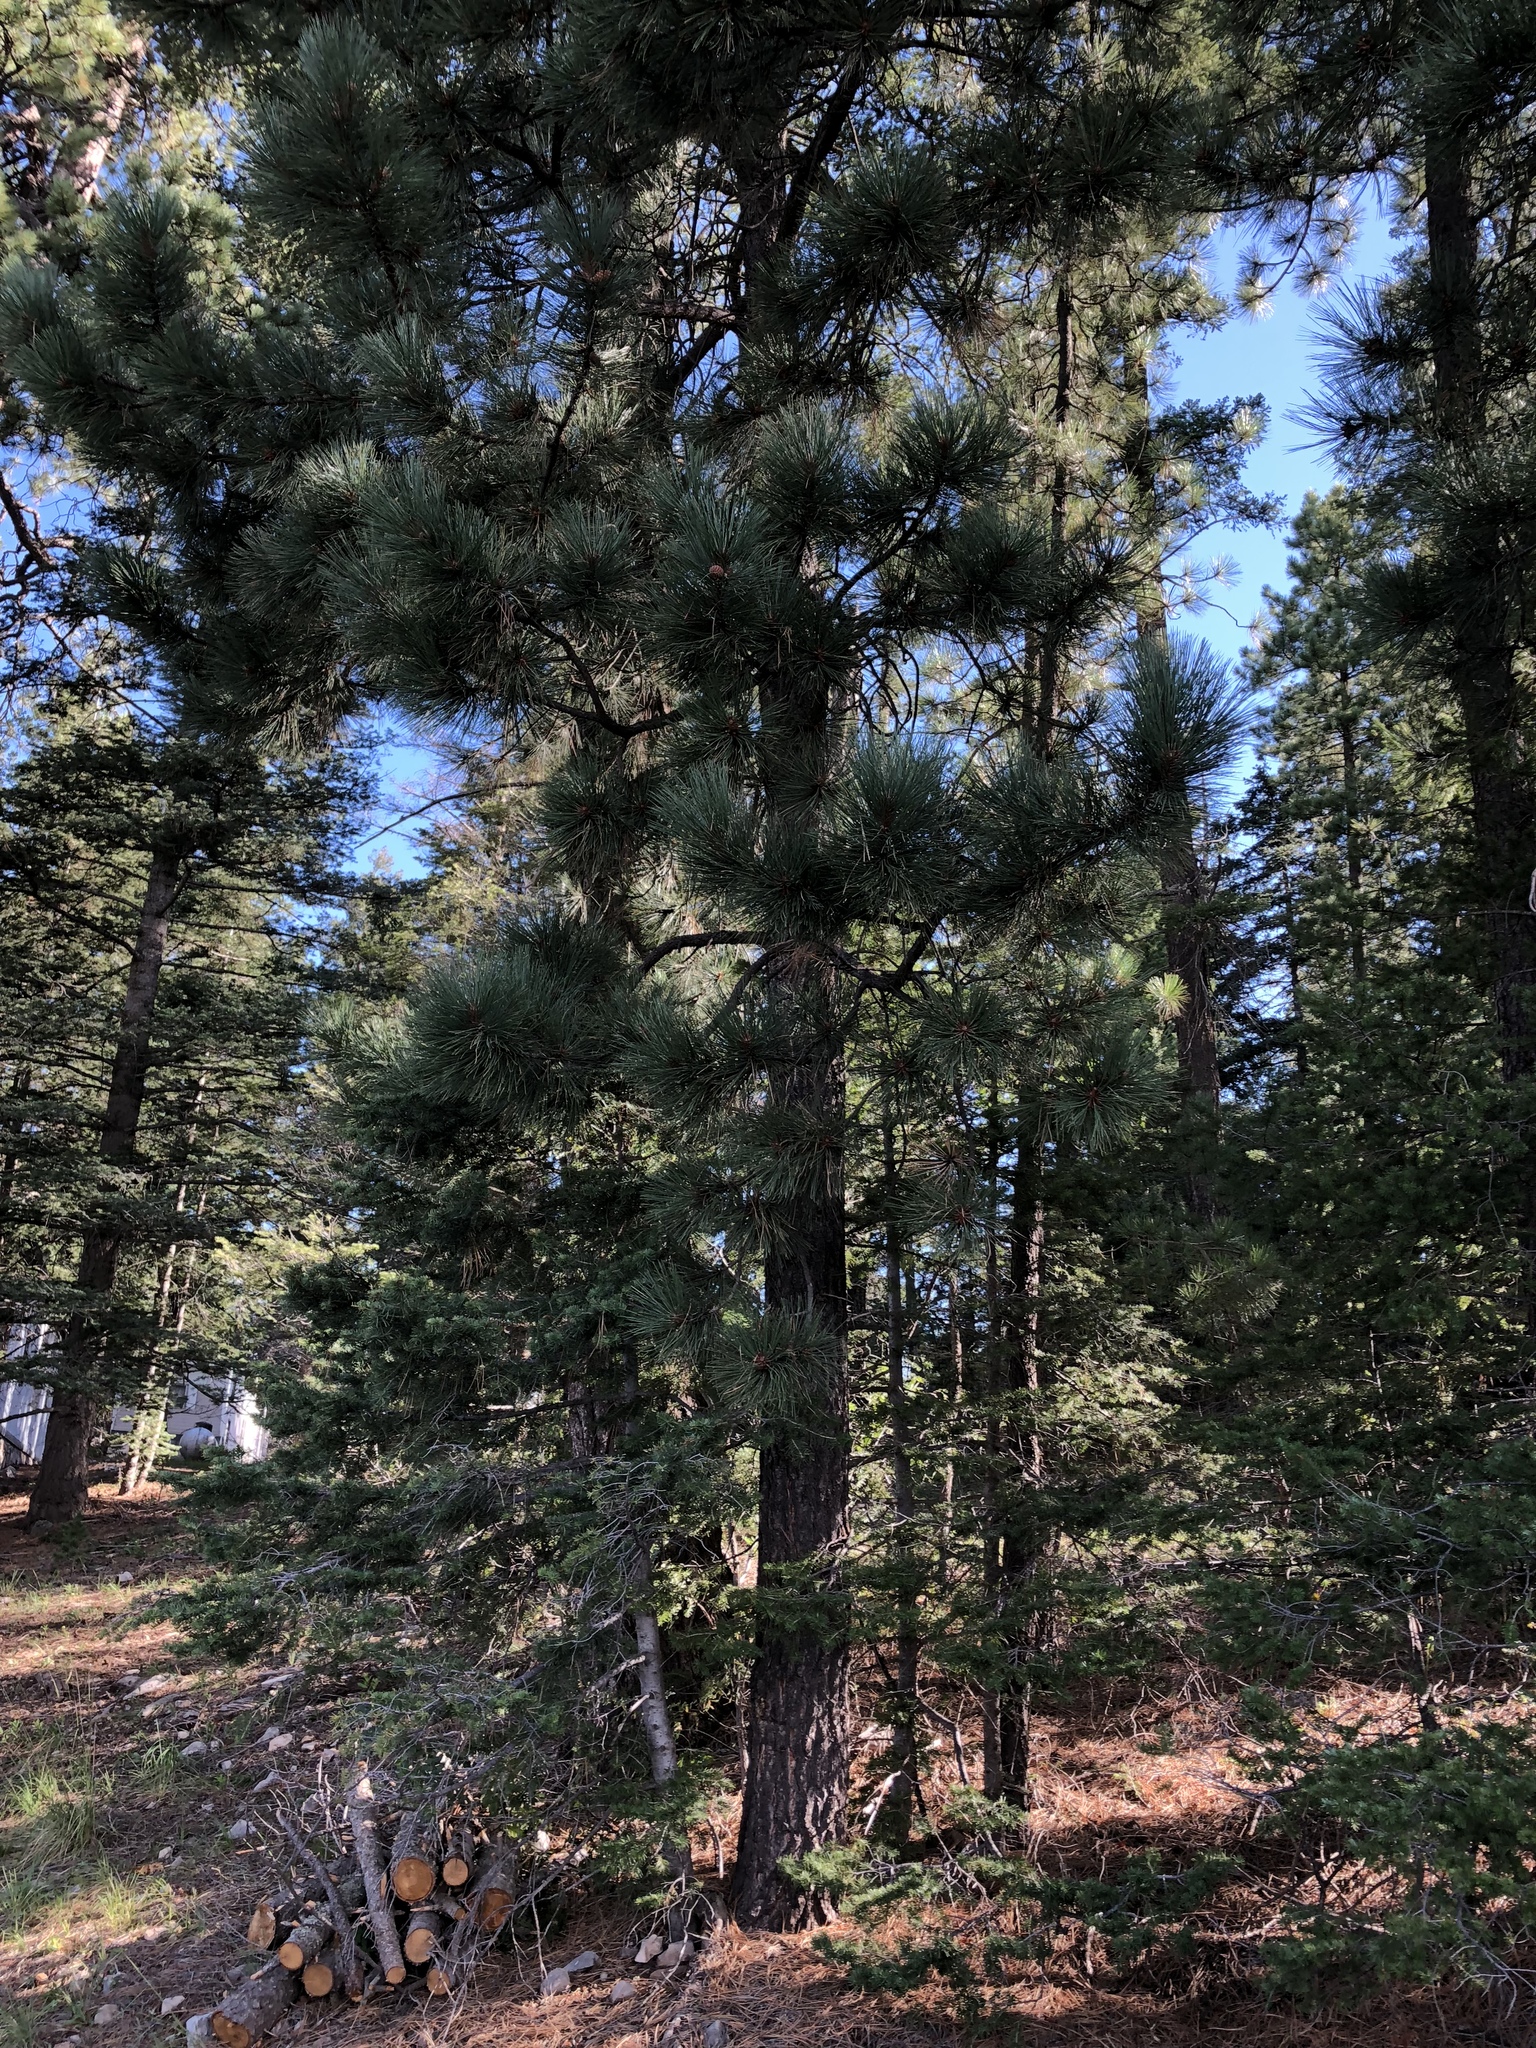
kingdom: Plantae
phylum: Tracheophyta
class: Pinopsida
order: Pinales
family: Pinaceae
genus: Pinus
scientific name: Pinus ponderosa
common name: Western yellow-pine
